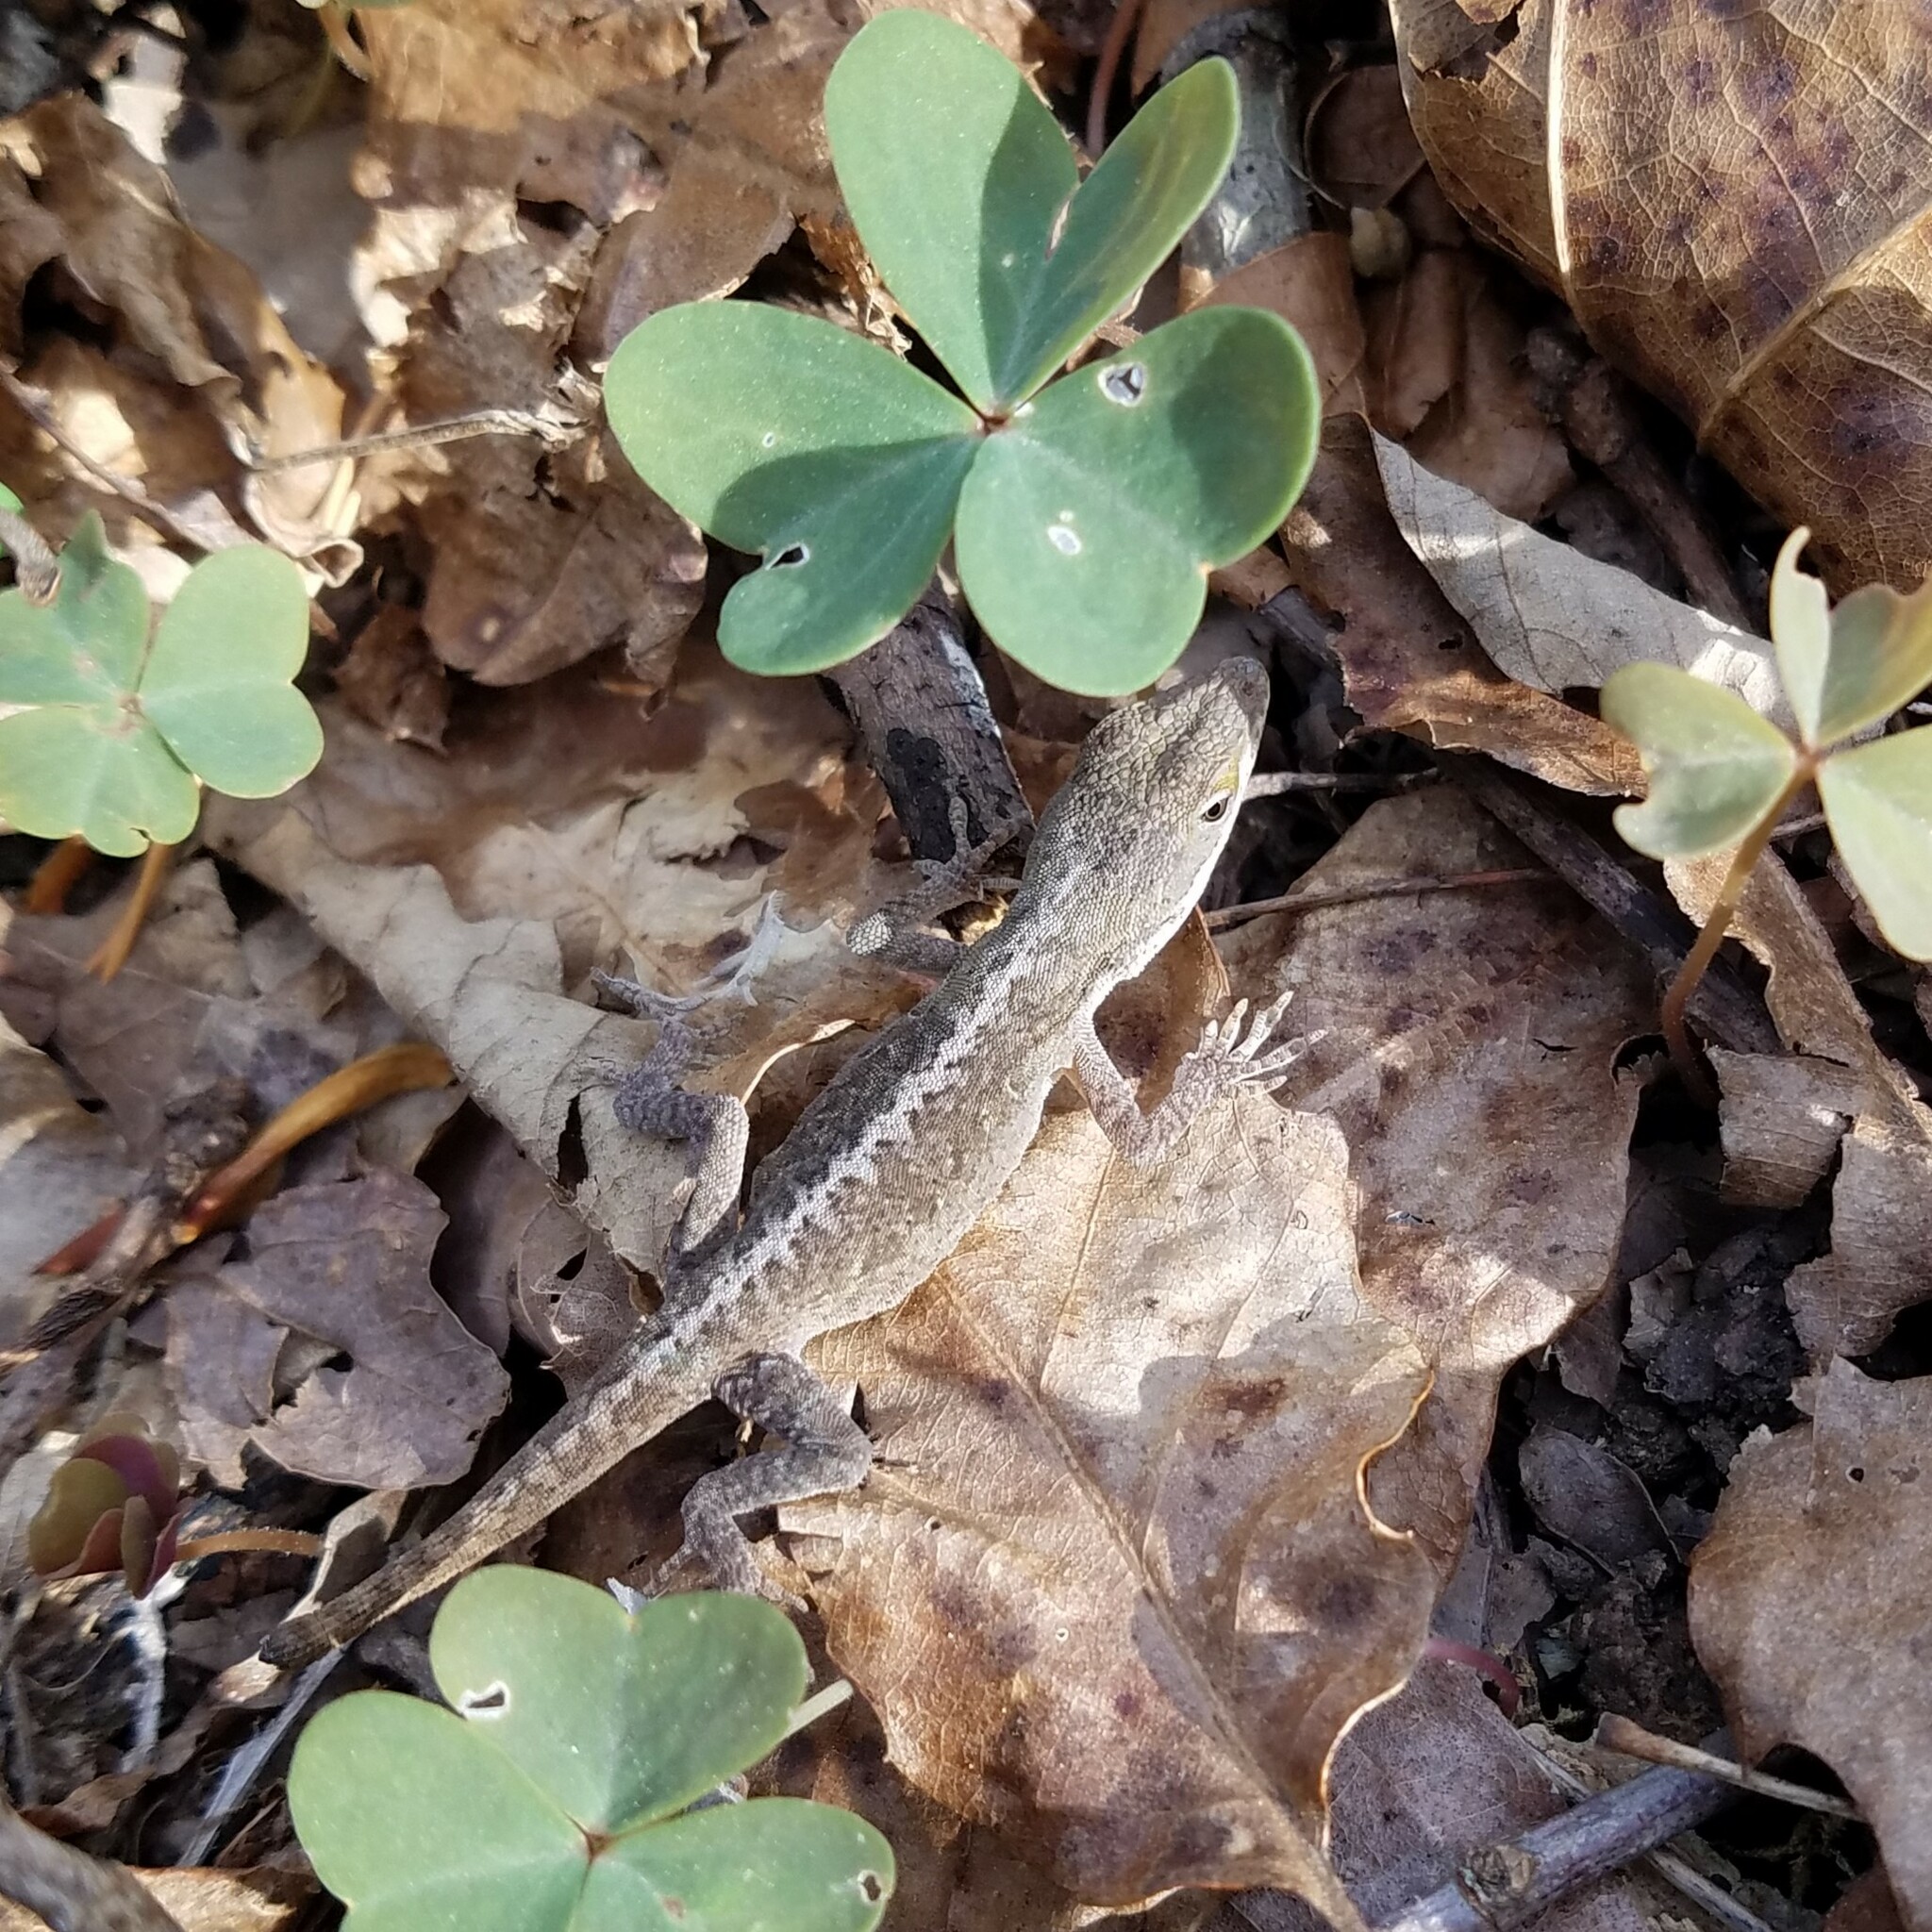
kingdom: Animalia
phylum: Chordata
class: Squamata
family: Dactyloidae
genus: Anolis
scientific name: Anolis carolinensis
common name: Green anole
